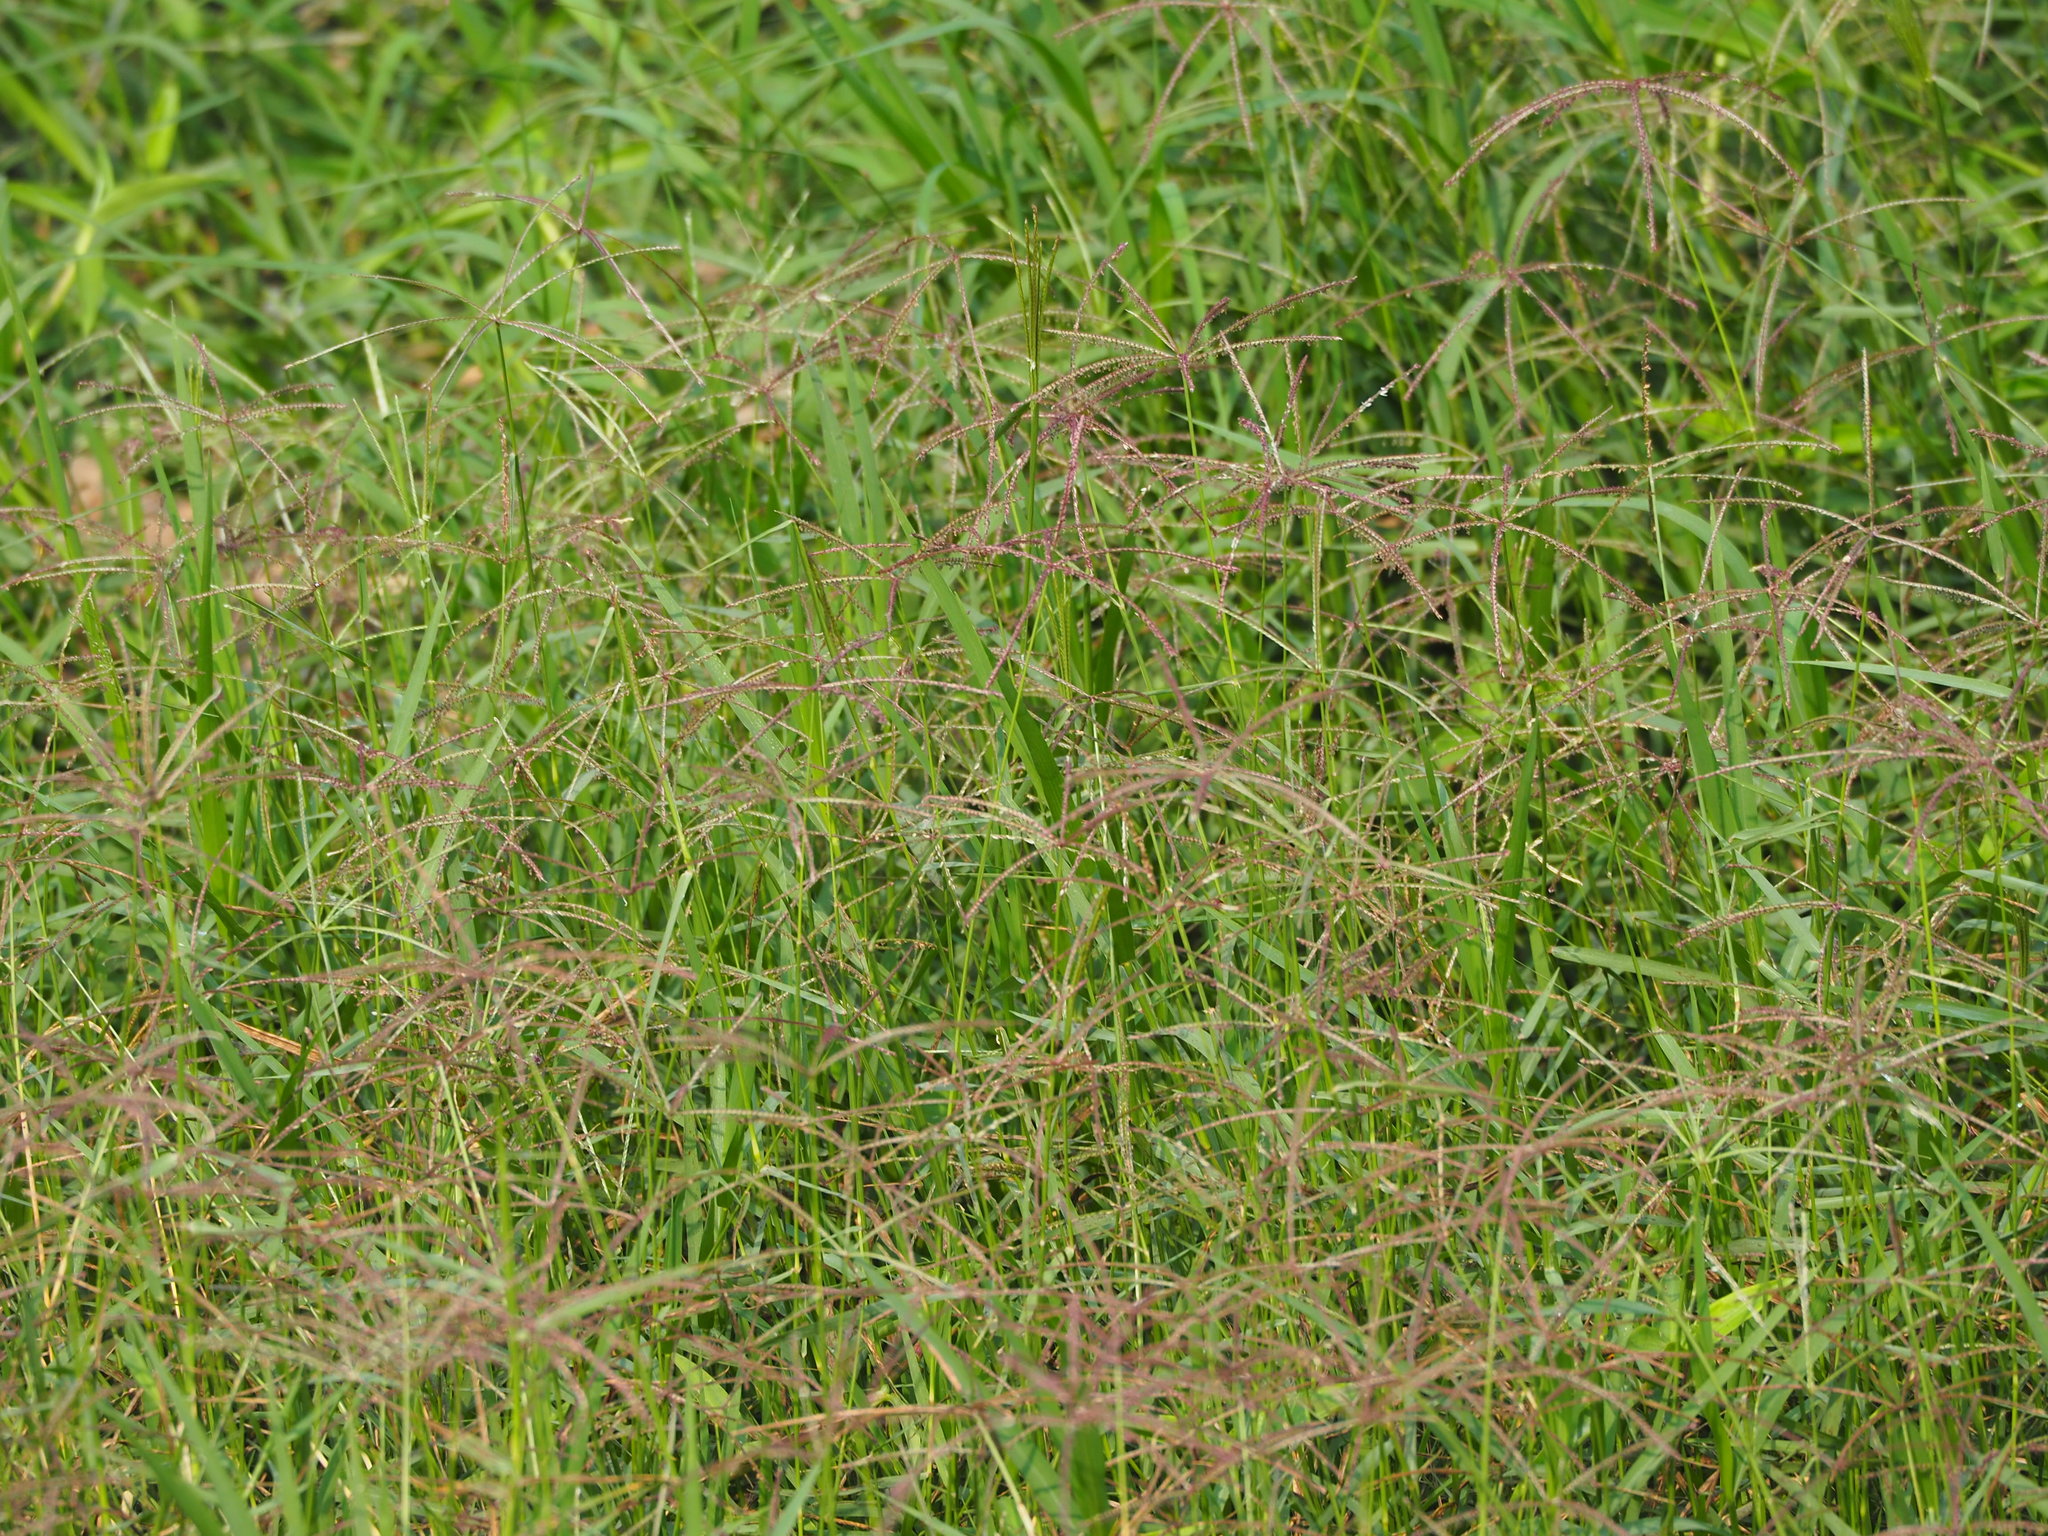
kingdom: Plantae
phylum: Tracheophyta
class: Liliopsida
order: Poales
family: Poaceae
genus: Cynodon
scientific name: Cynodon nlemfuensis
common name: African bermudagrass
